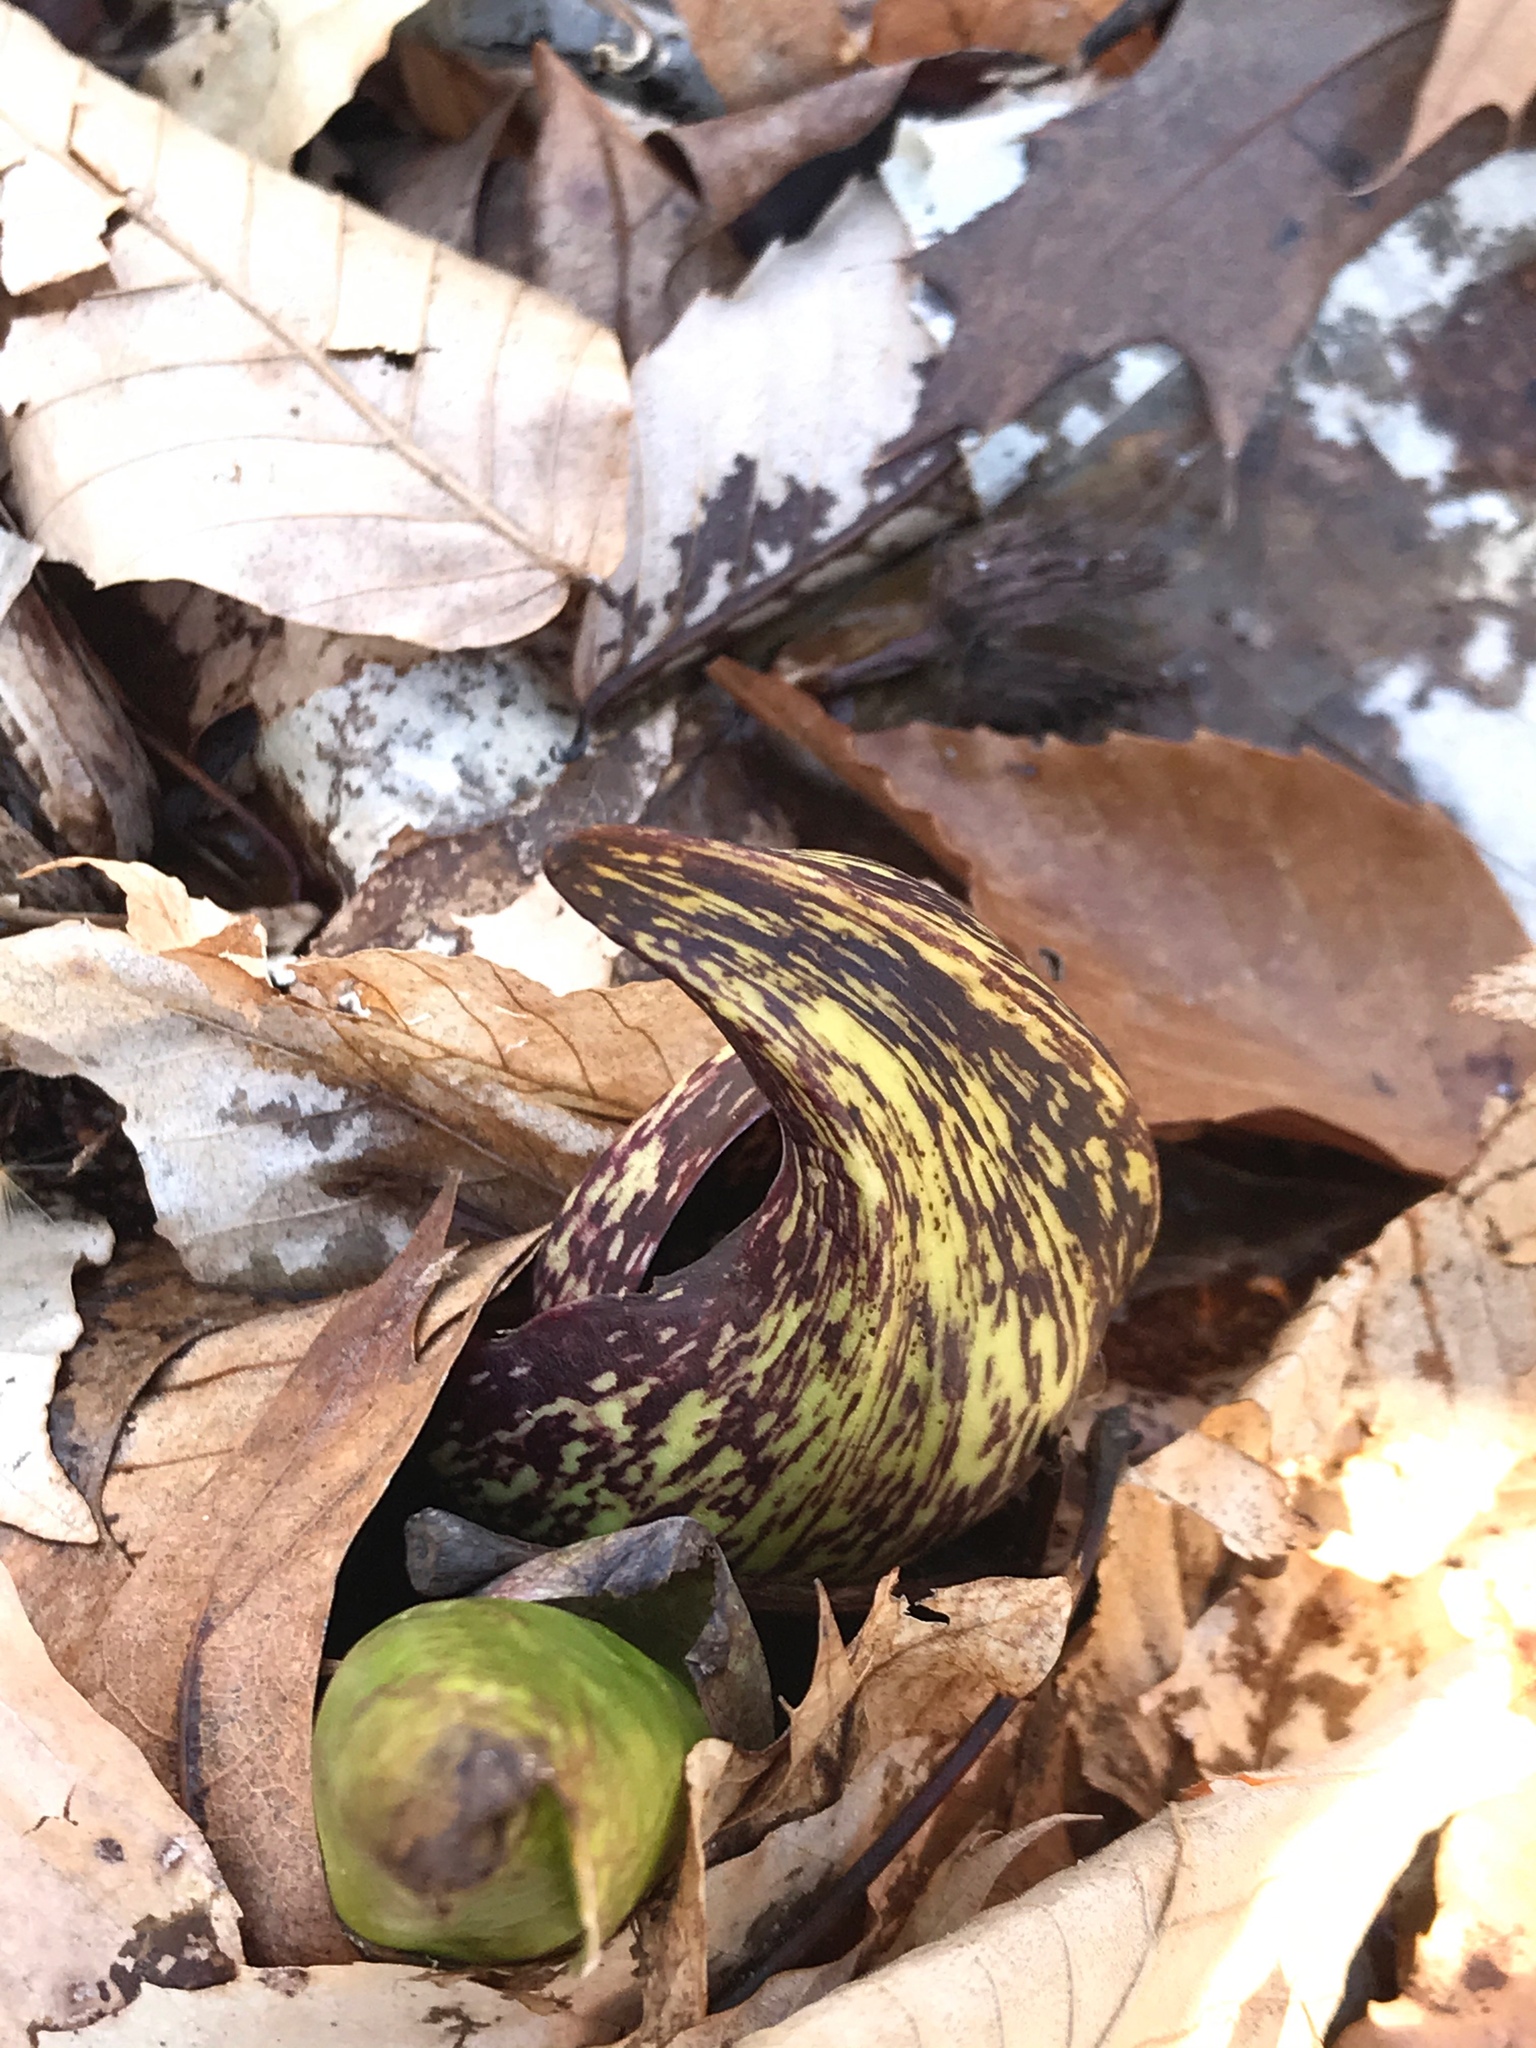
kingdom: Plantae
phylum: Tracheophyta
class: Liliopsida
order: Alismatales
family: Araceae
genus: Symplocarpus
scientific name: Symplocarpus foetidus
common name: Eastern skunk cabbage
